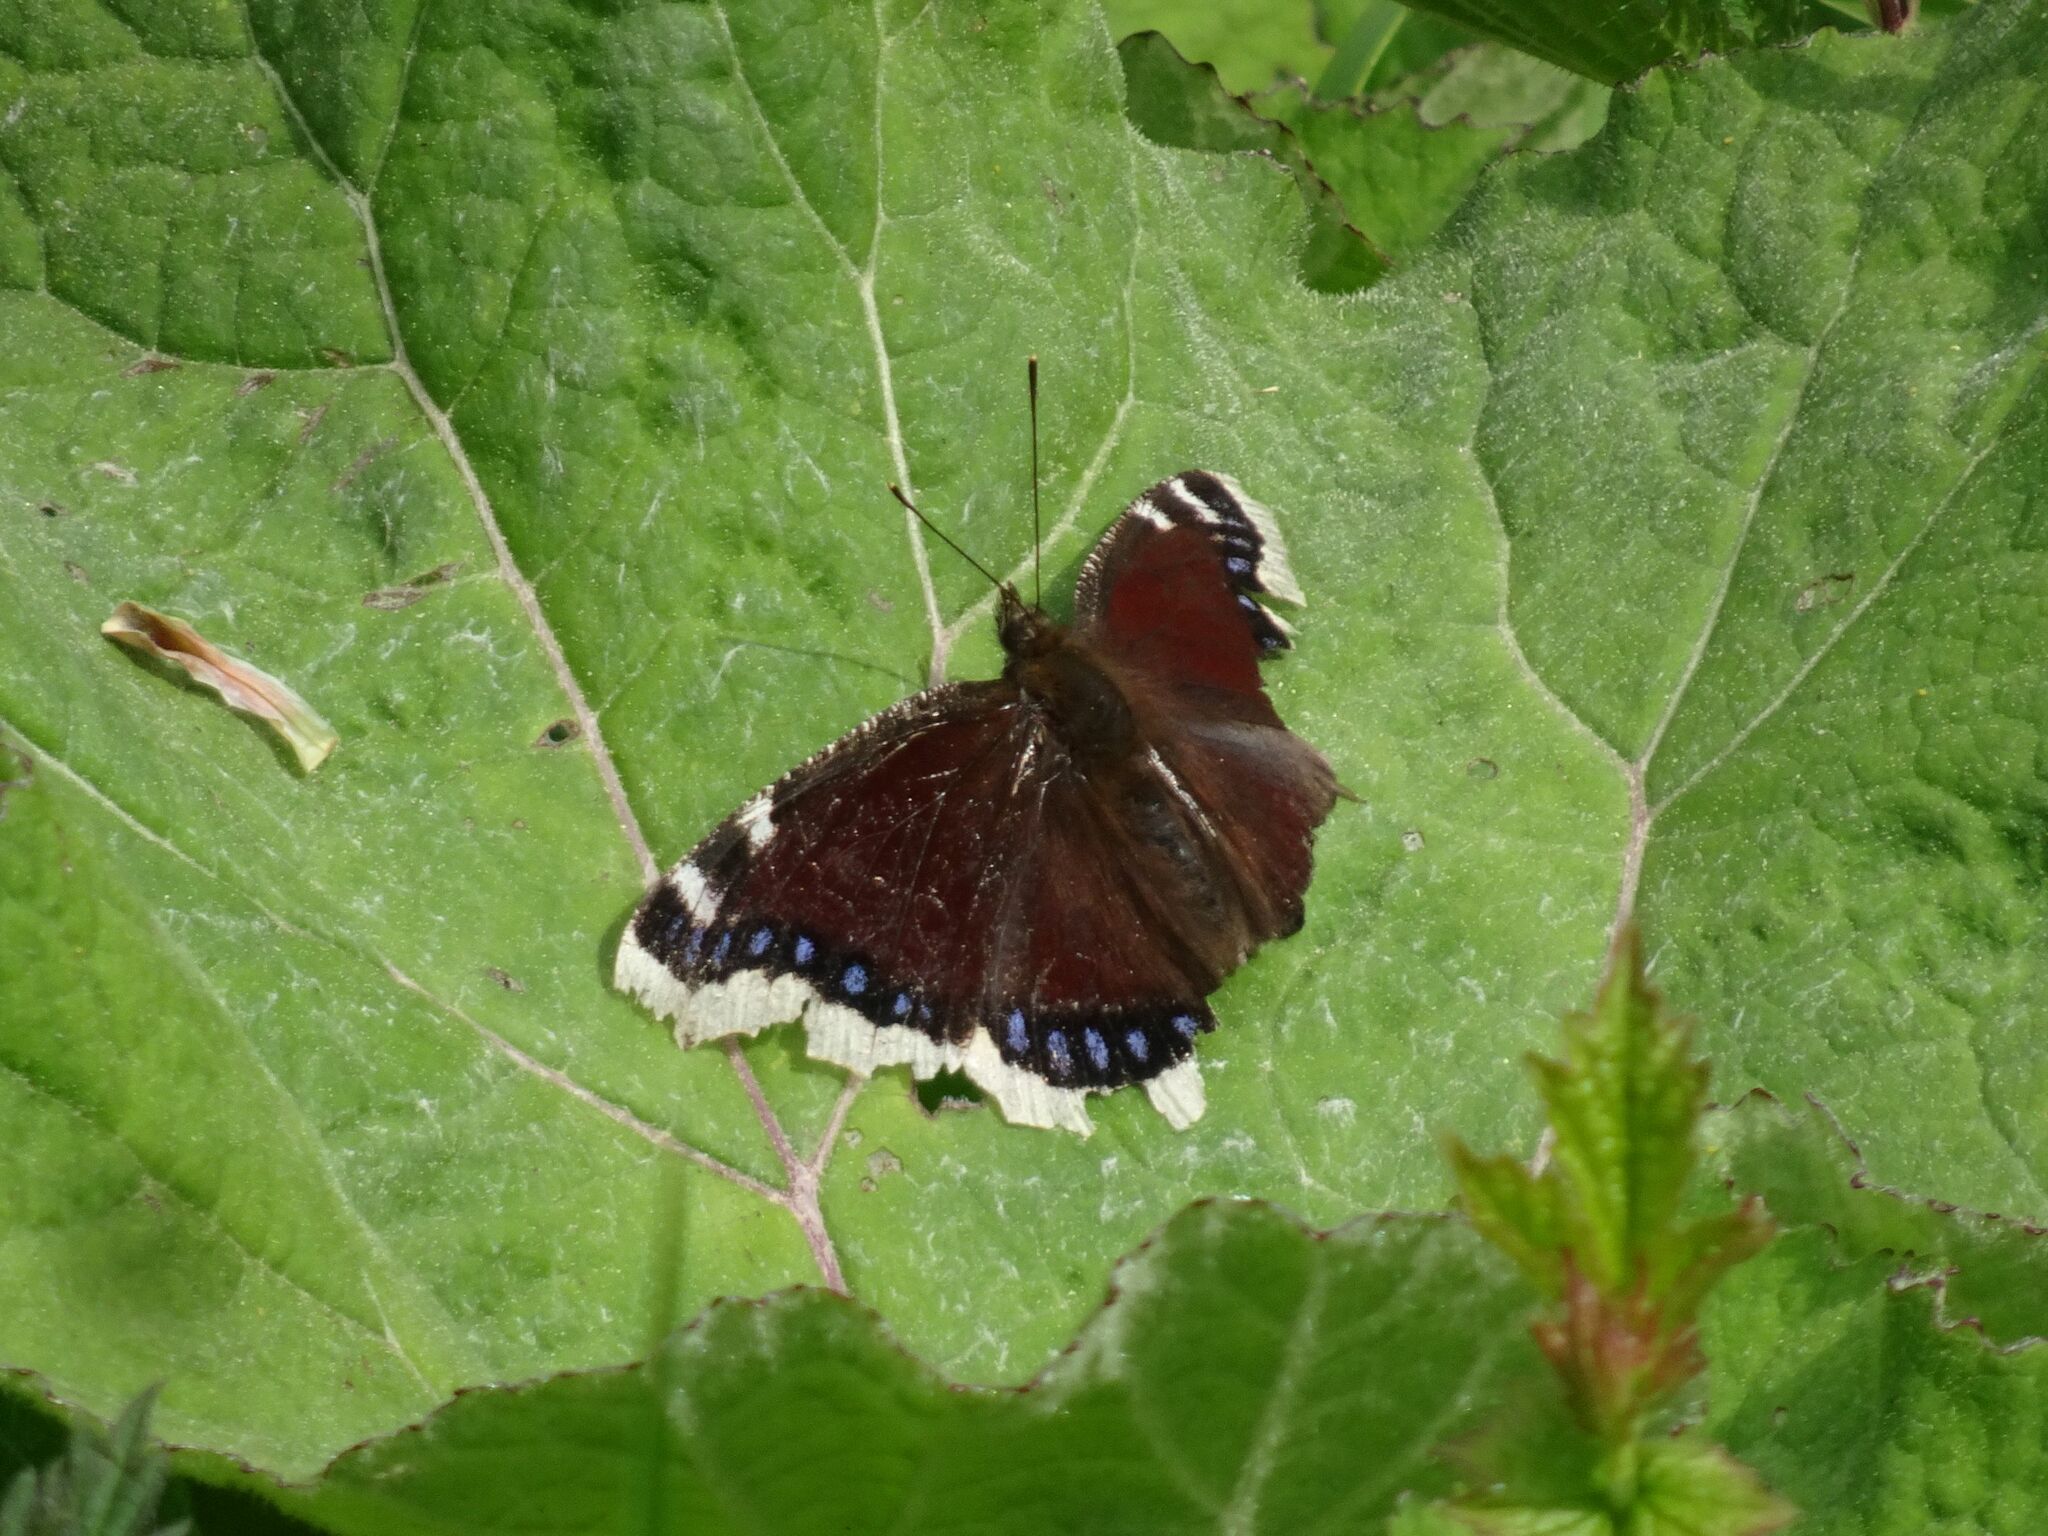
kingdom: Animalia
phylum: Arthropoda
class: Insecta
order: Lepidoptera
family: Nymphalidae
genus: Nymphalis
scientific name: Nymphalis antiopa
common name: Camberwell beauty
